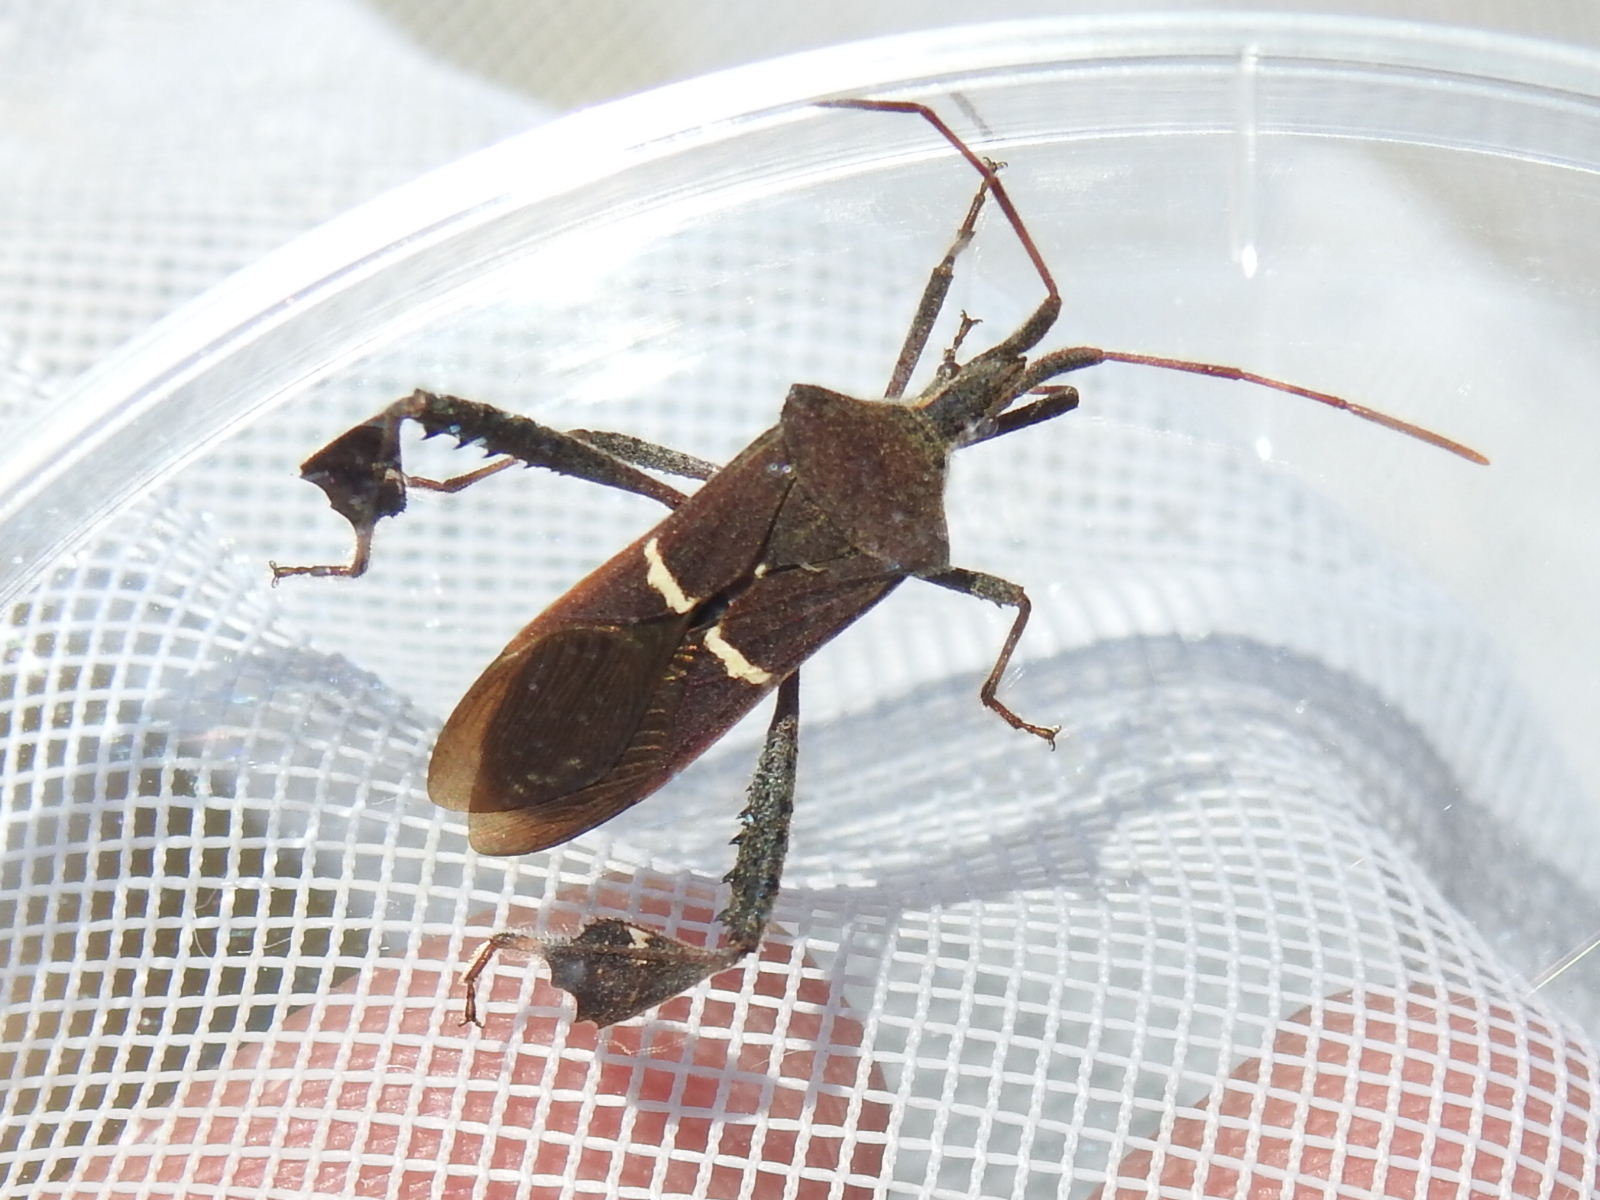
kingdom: Animalia
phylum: Arthropoda
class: Insecta
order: Hemiptera
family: Coreidae
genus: Leptoglossus
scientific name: Leptoglossus phyllopus
